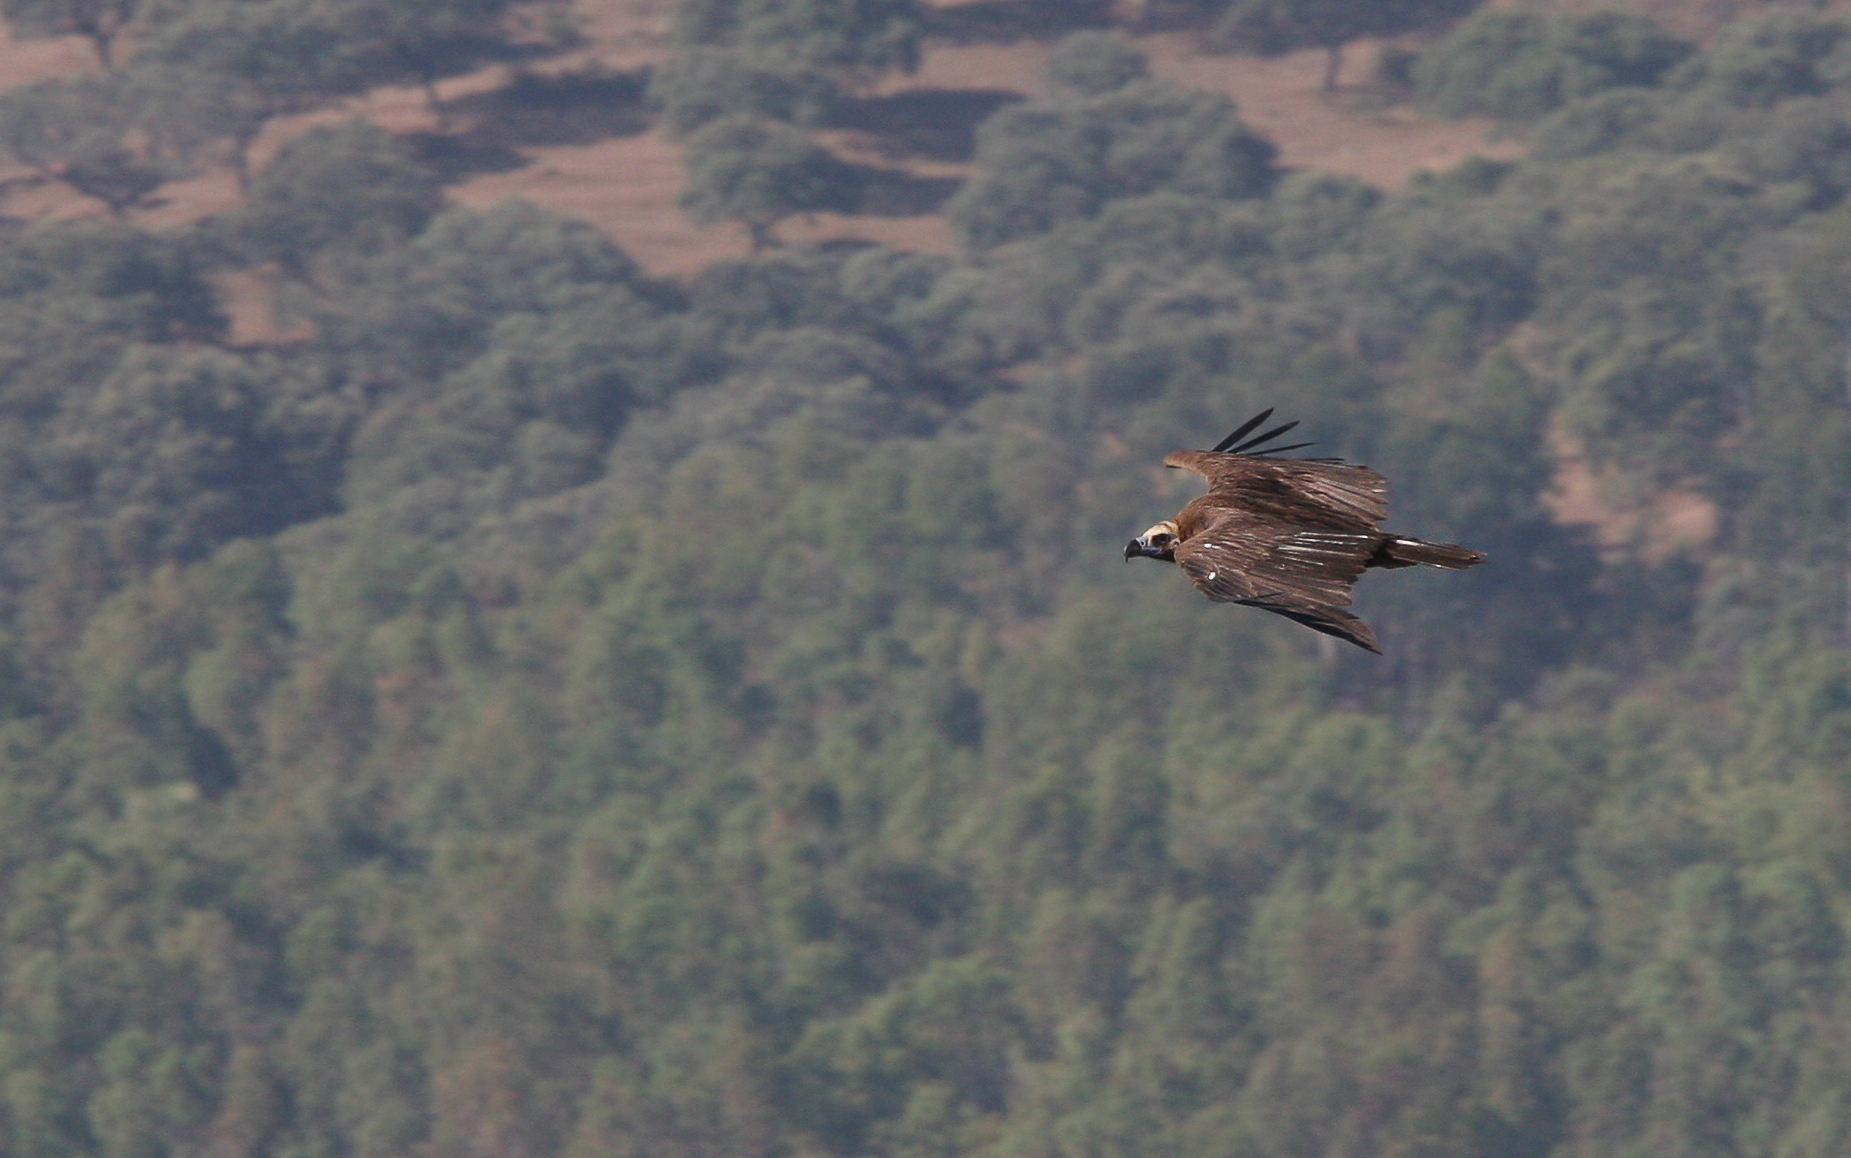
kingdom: Animalia
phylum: Chordata
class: Aves
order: Accipitriformes
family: Accipitridae
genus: Aegypius
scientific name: Aegypius monachus
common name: Cinereous vulture
